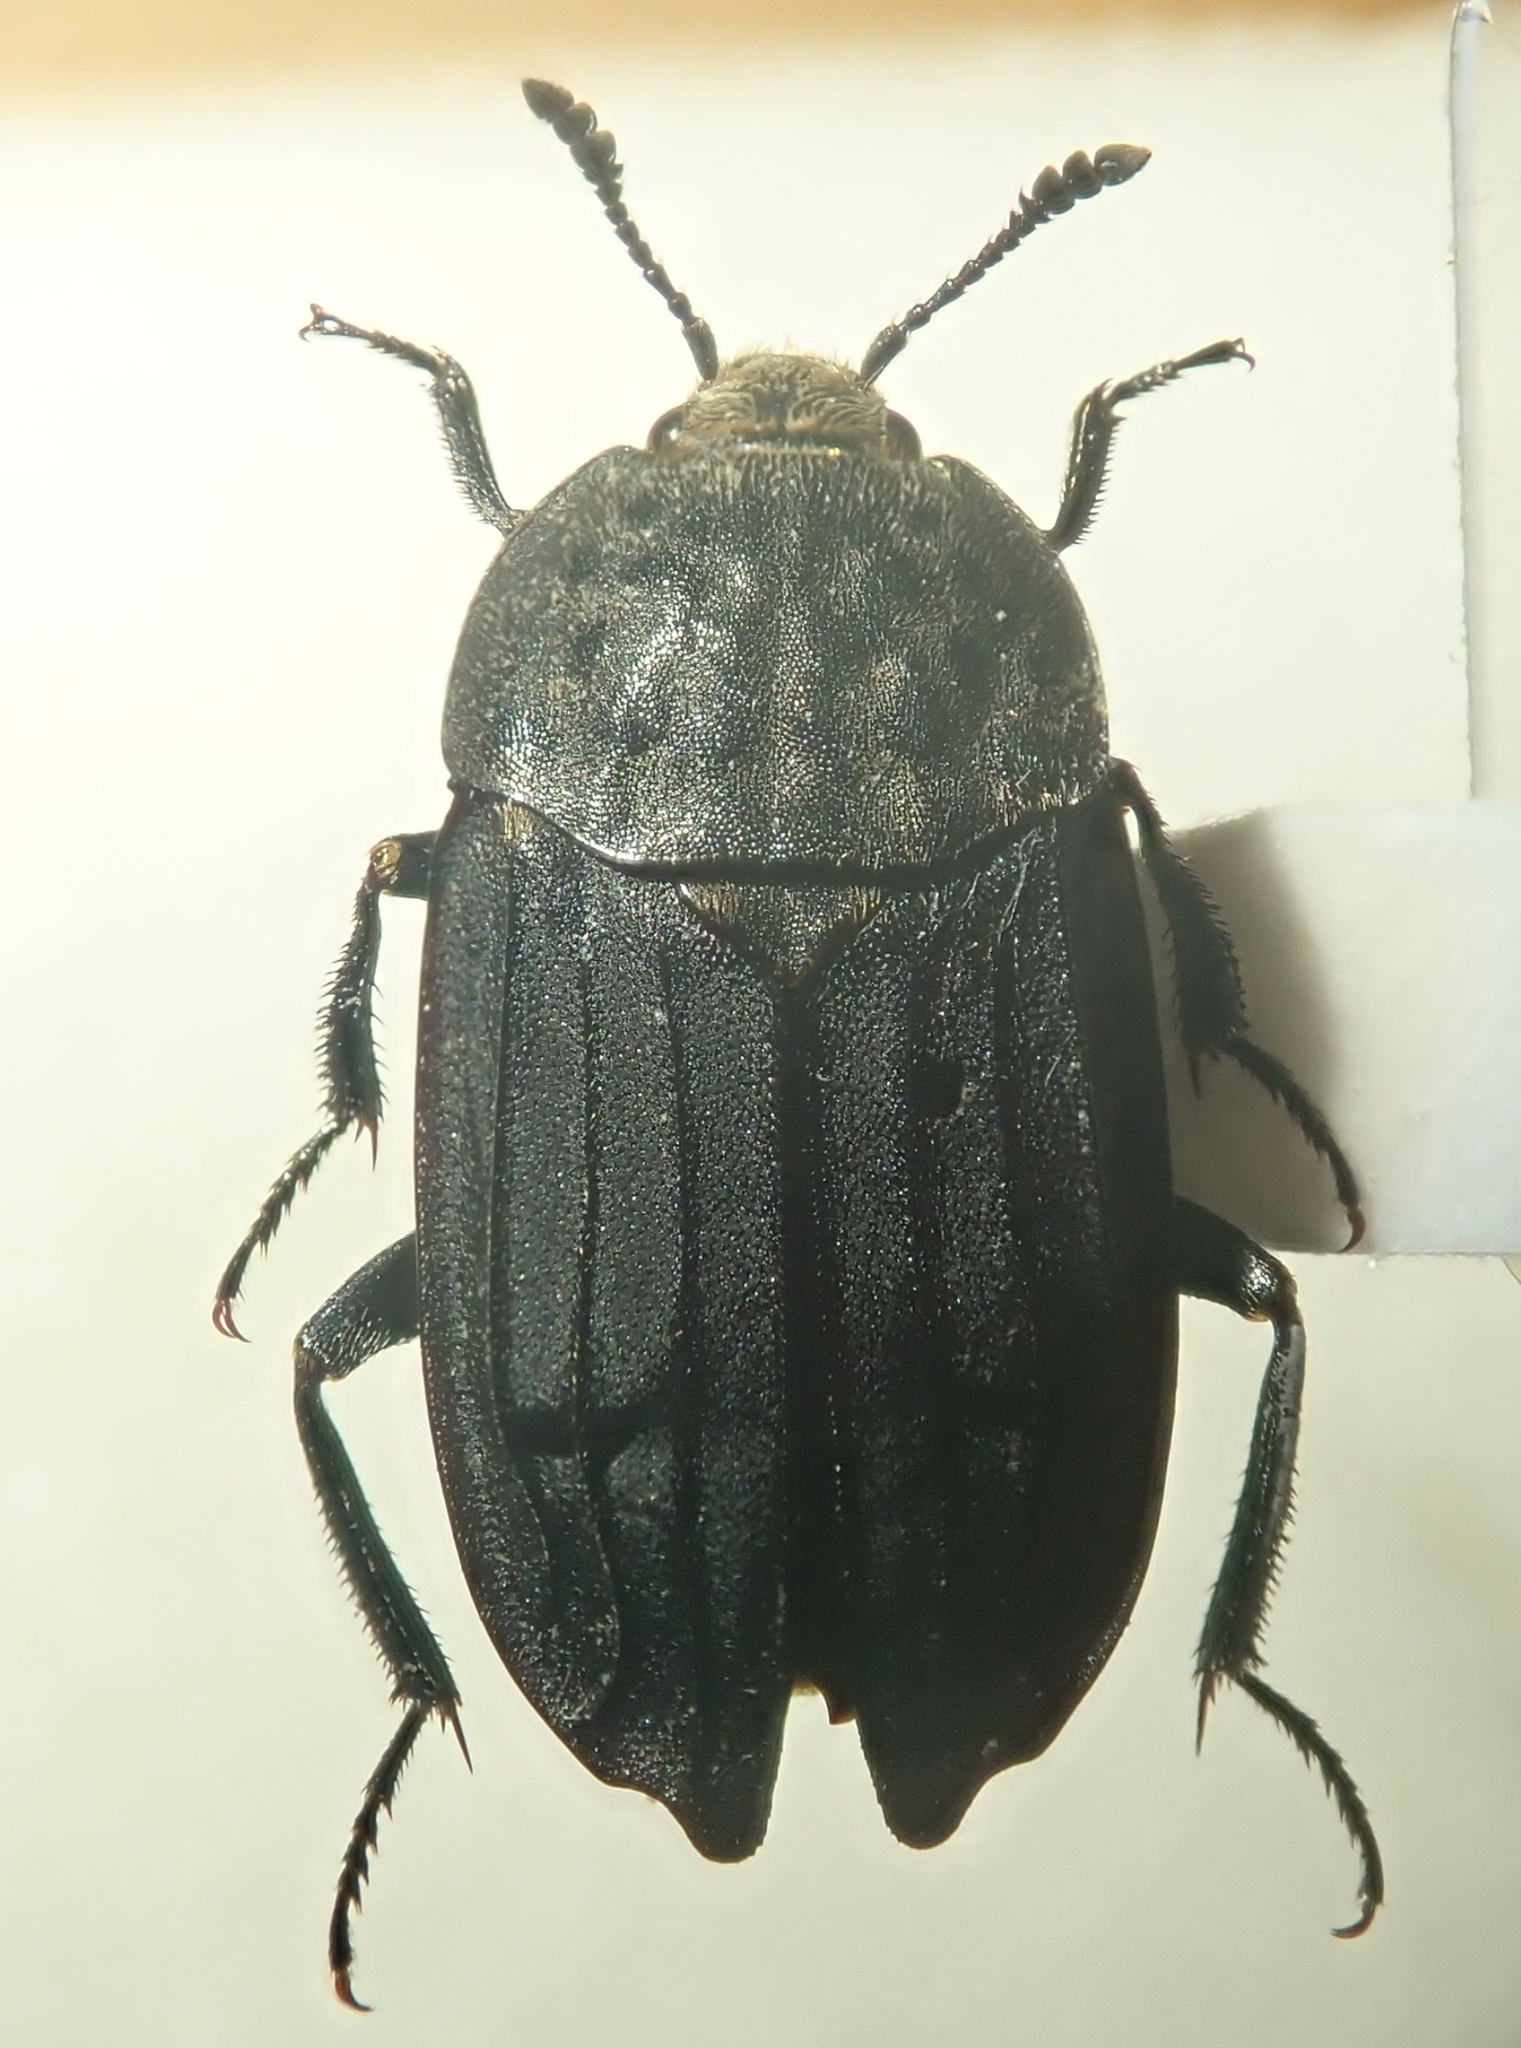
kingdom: Animalia
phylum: Arthropoda
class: Insecta
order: Coleoptera
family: Staphylinidae
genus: Thanatophilus
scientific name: Thanatophilus sinuatus
